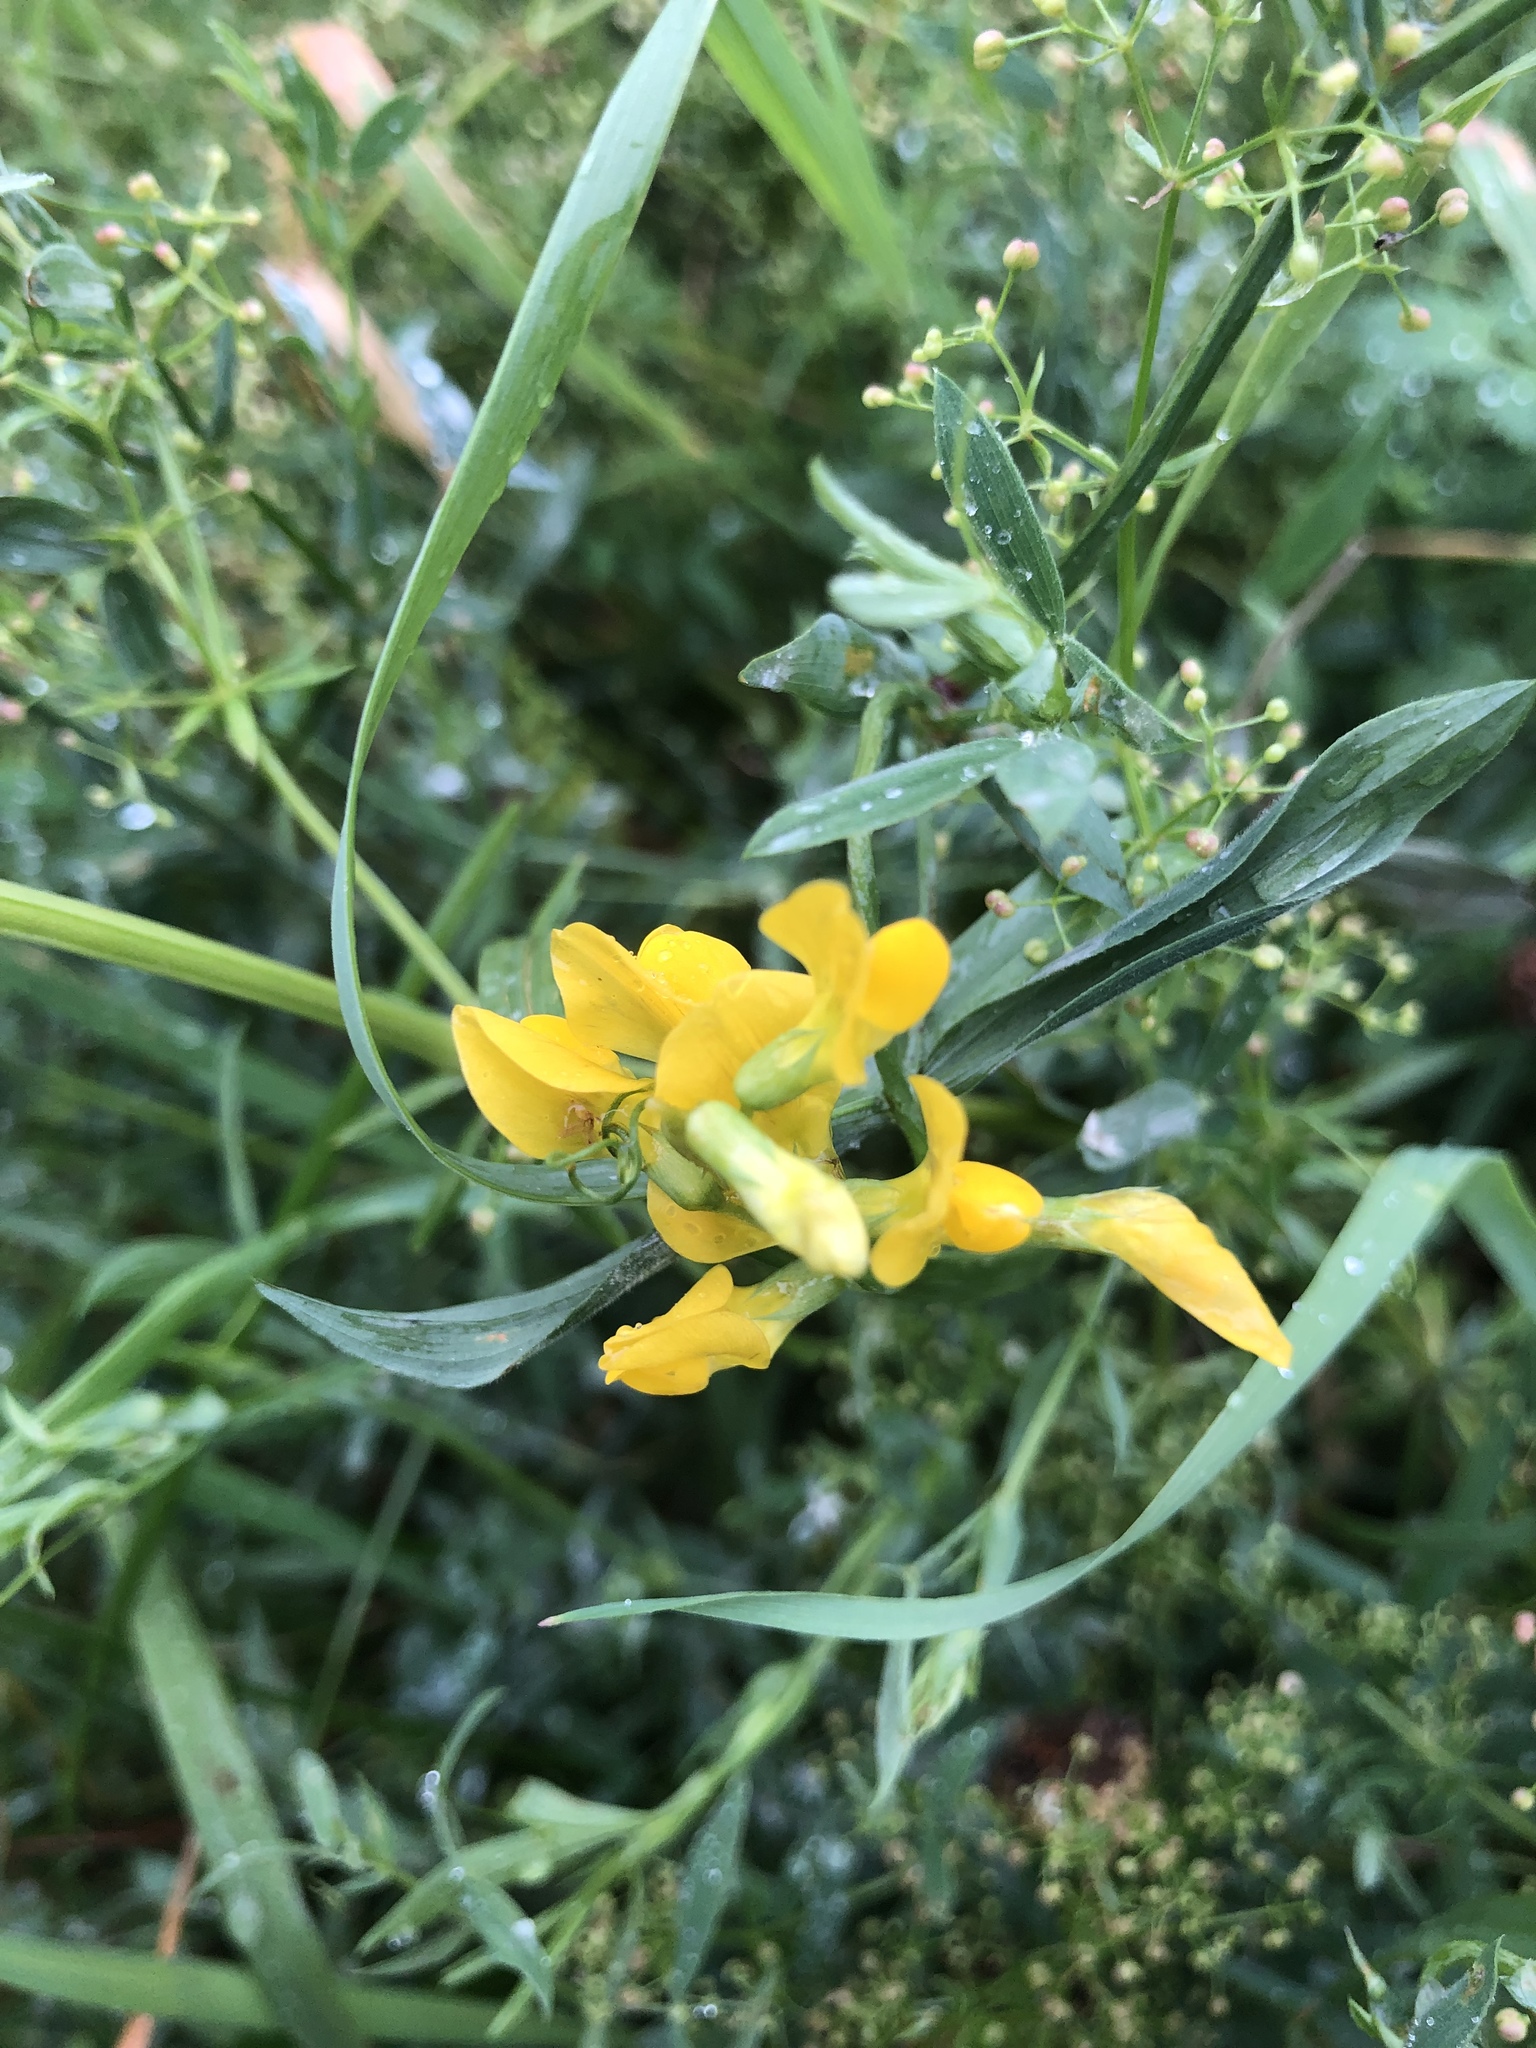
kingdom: Plantae
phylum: Tracheophyta
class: Magnoliopsida
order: Fabales
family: Fabaceae
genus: Lathyrus
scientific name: Lathyrus pratensis
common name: Meadow vetchling
